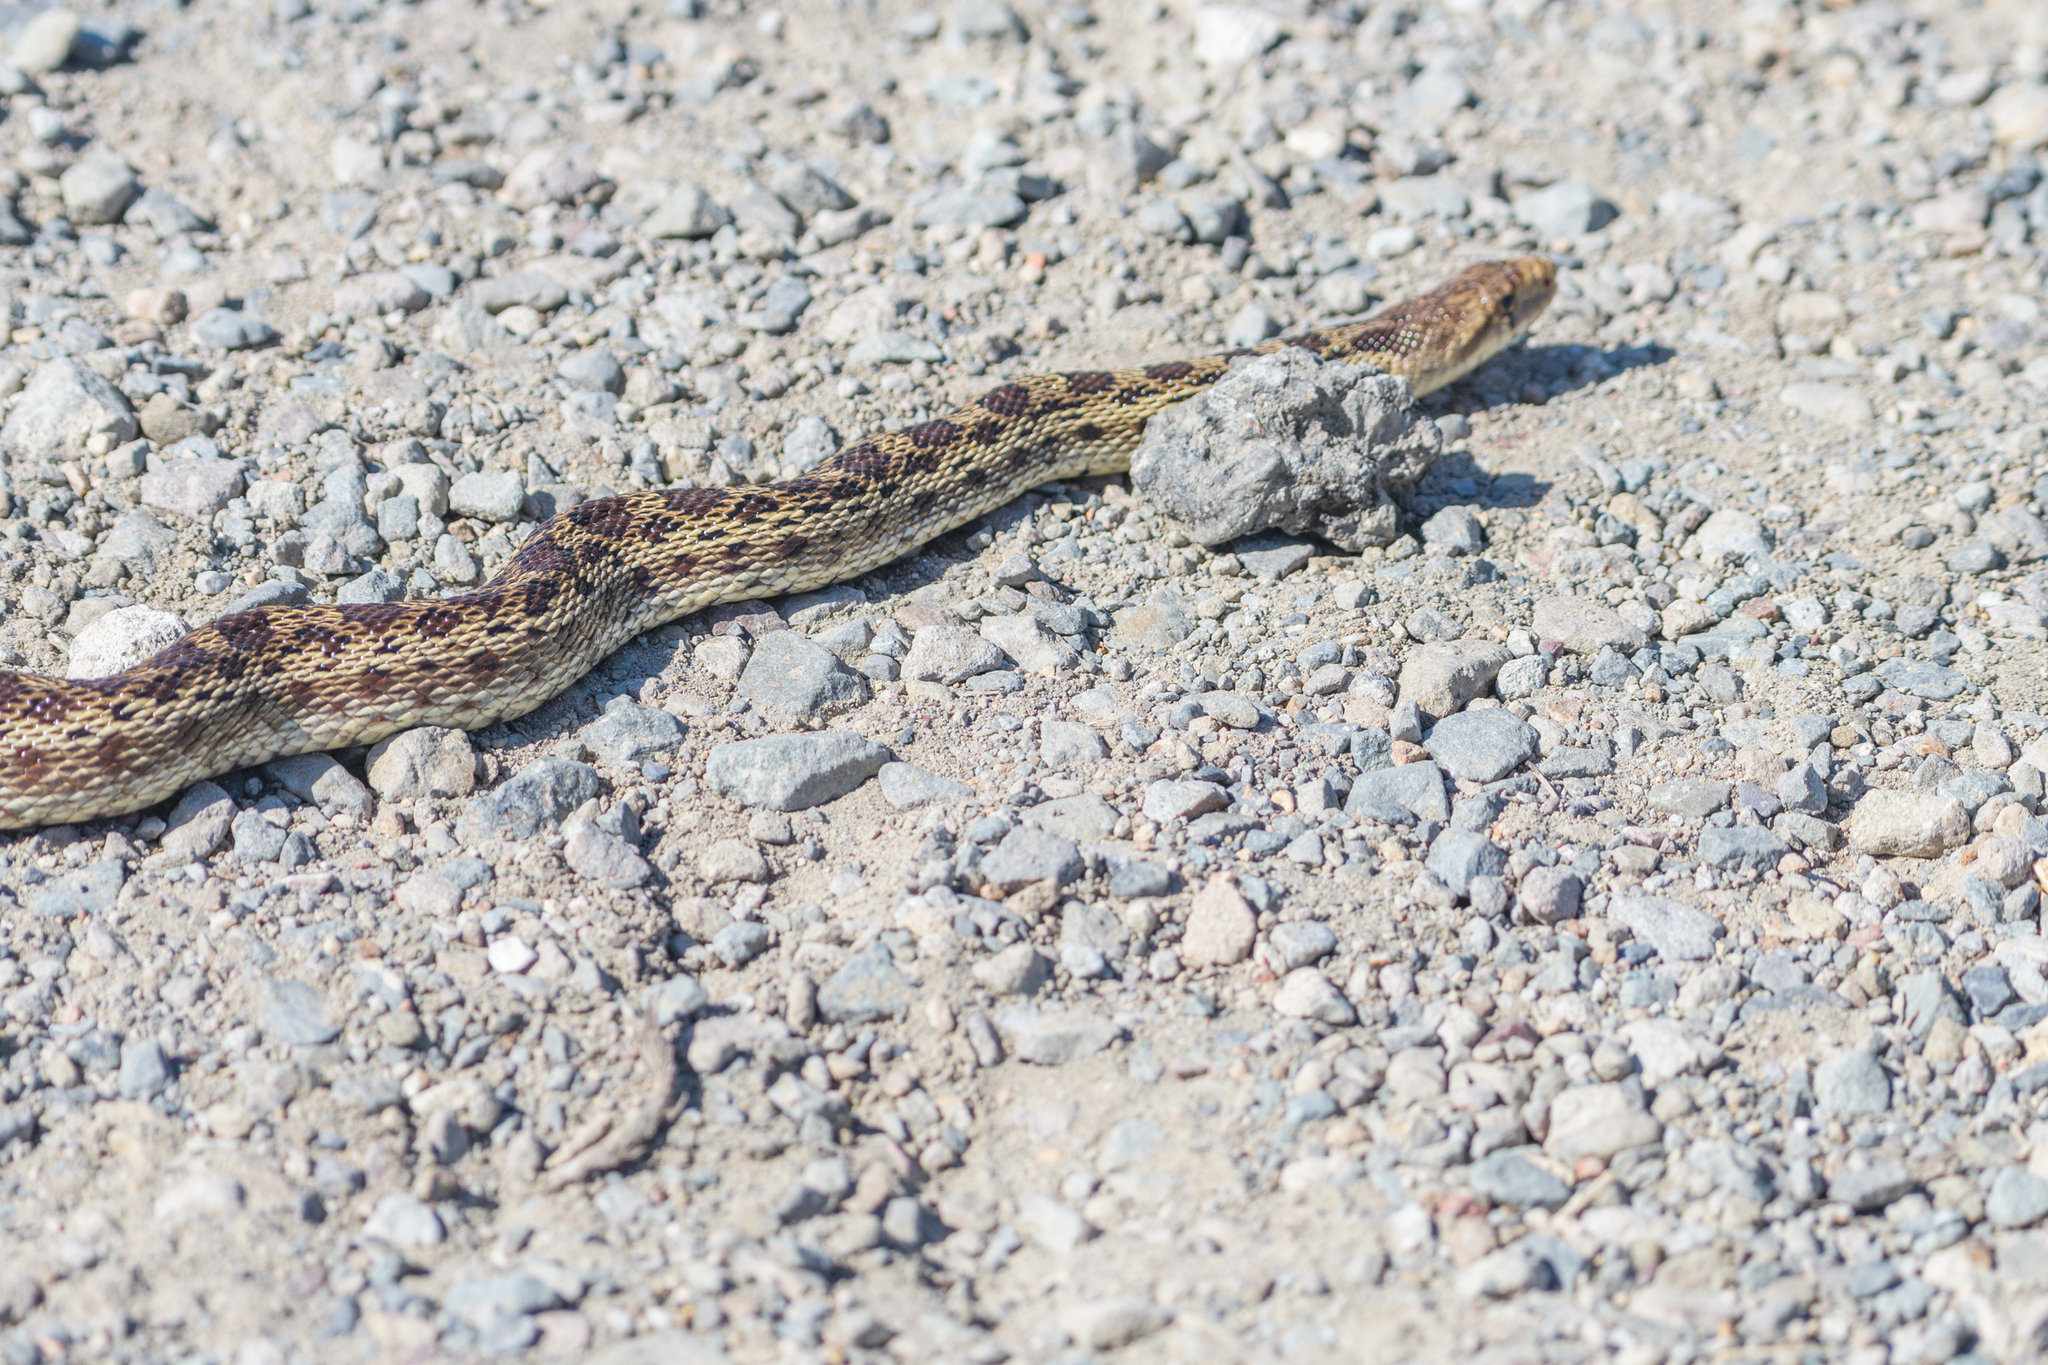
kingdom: Animalia
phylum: Chordata
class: Squamata
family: Colubridae
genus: Pituophis
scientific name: Pituophis catenifer
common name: Gopher snake
